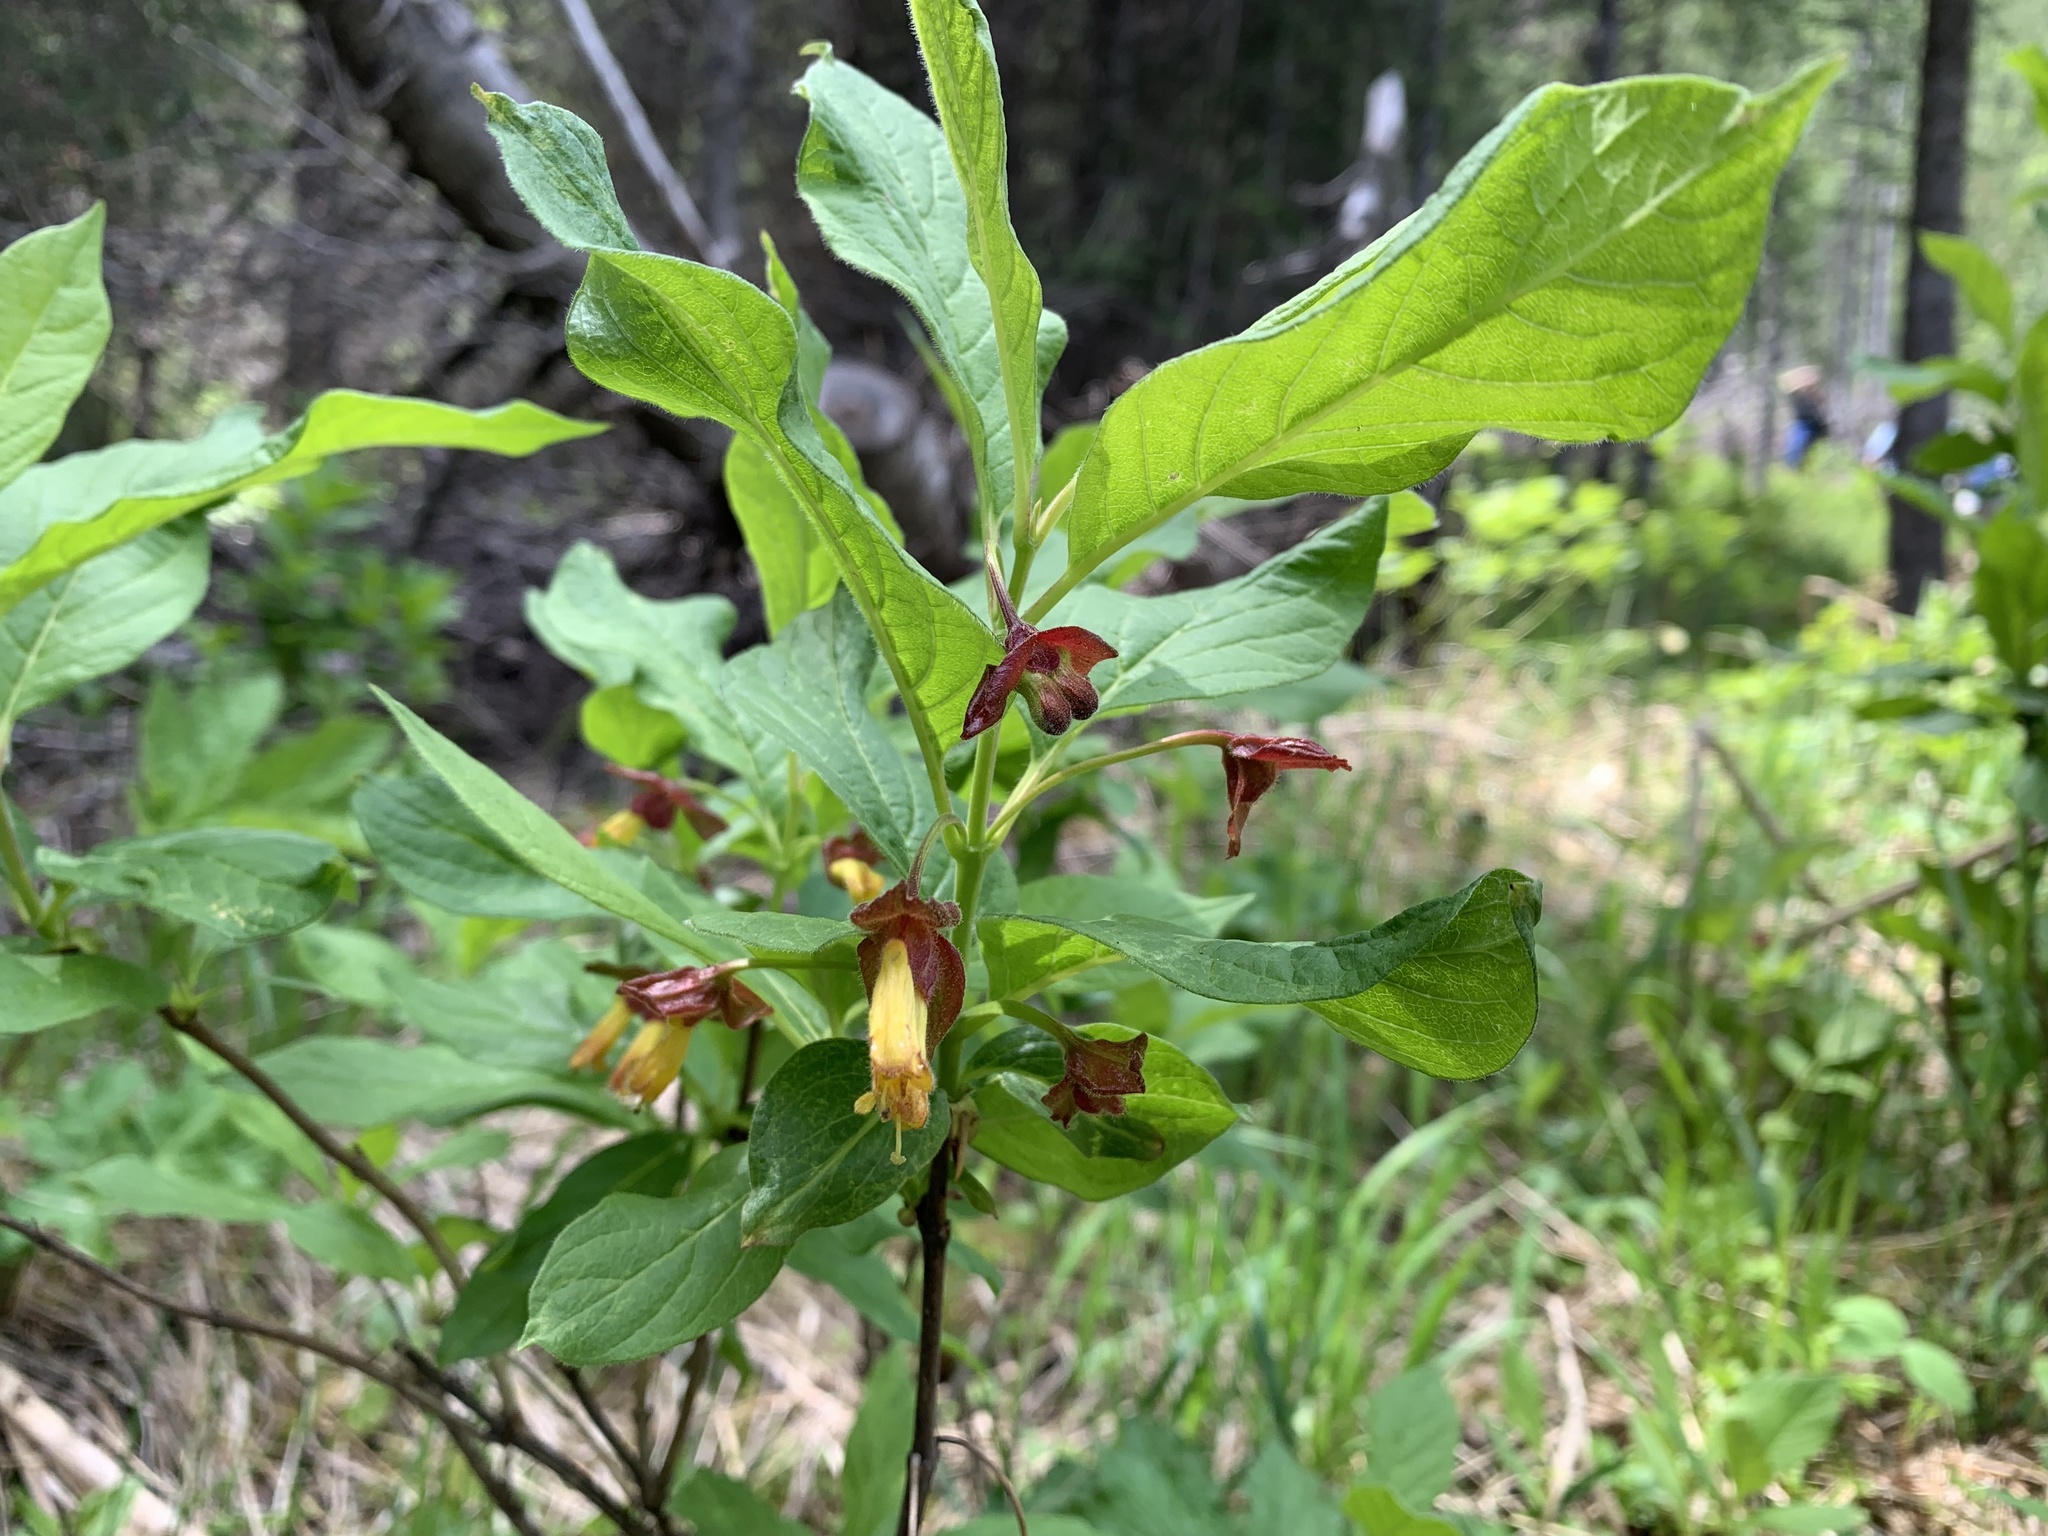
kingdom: Plantae
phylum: Tracheophyta
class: Magnoliopsida
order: Dipsacales
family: Caprifoliaceae
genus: Lonicera
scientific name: Lonicera involucrata
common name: Californian honeysuckle
